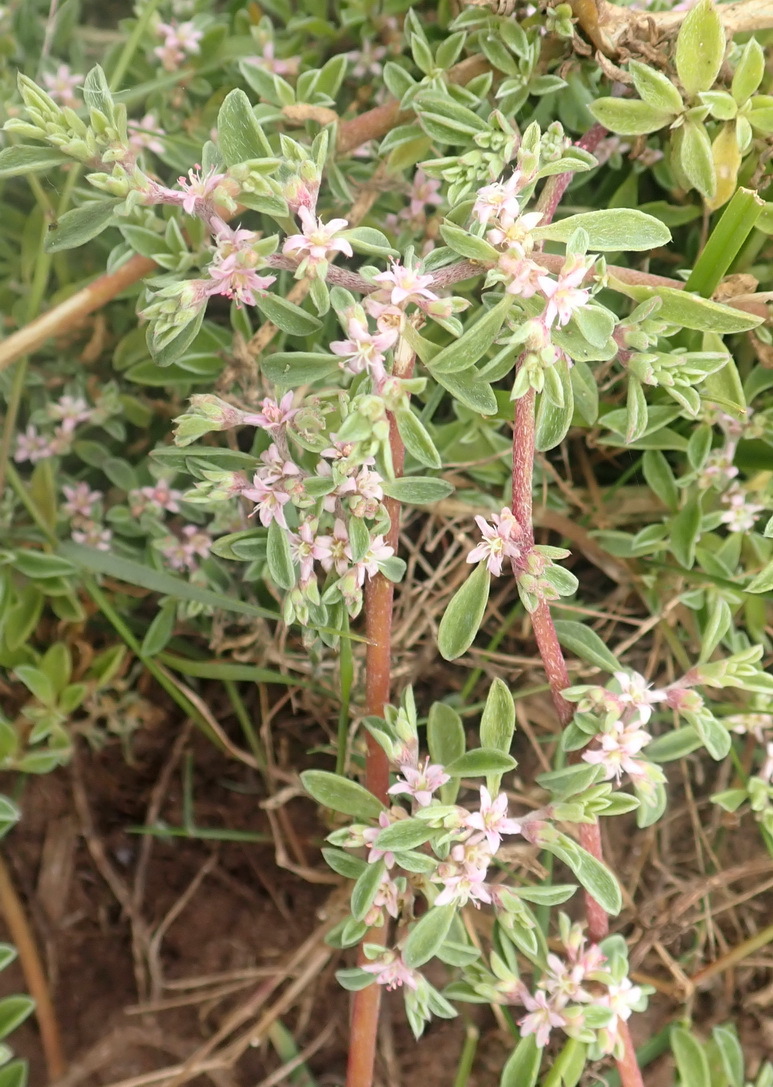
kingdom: Plantae
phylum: Tracheophyta
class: Magnoliopsida
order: Caryophyllales
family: Aizoaceae
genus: Aizoon
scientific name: Aizoon pubescens
